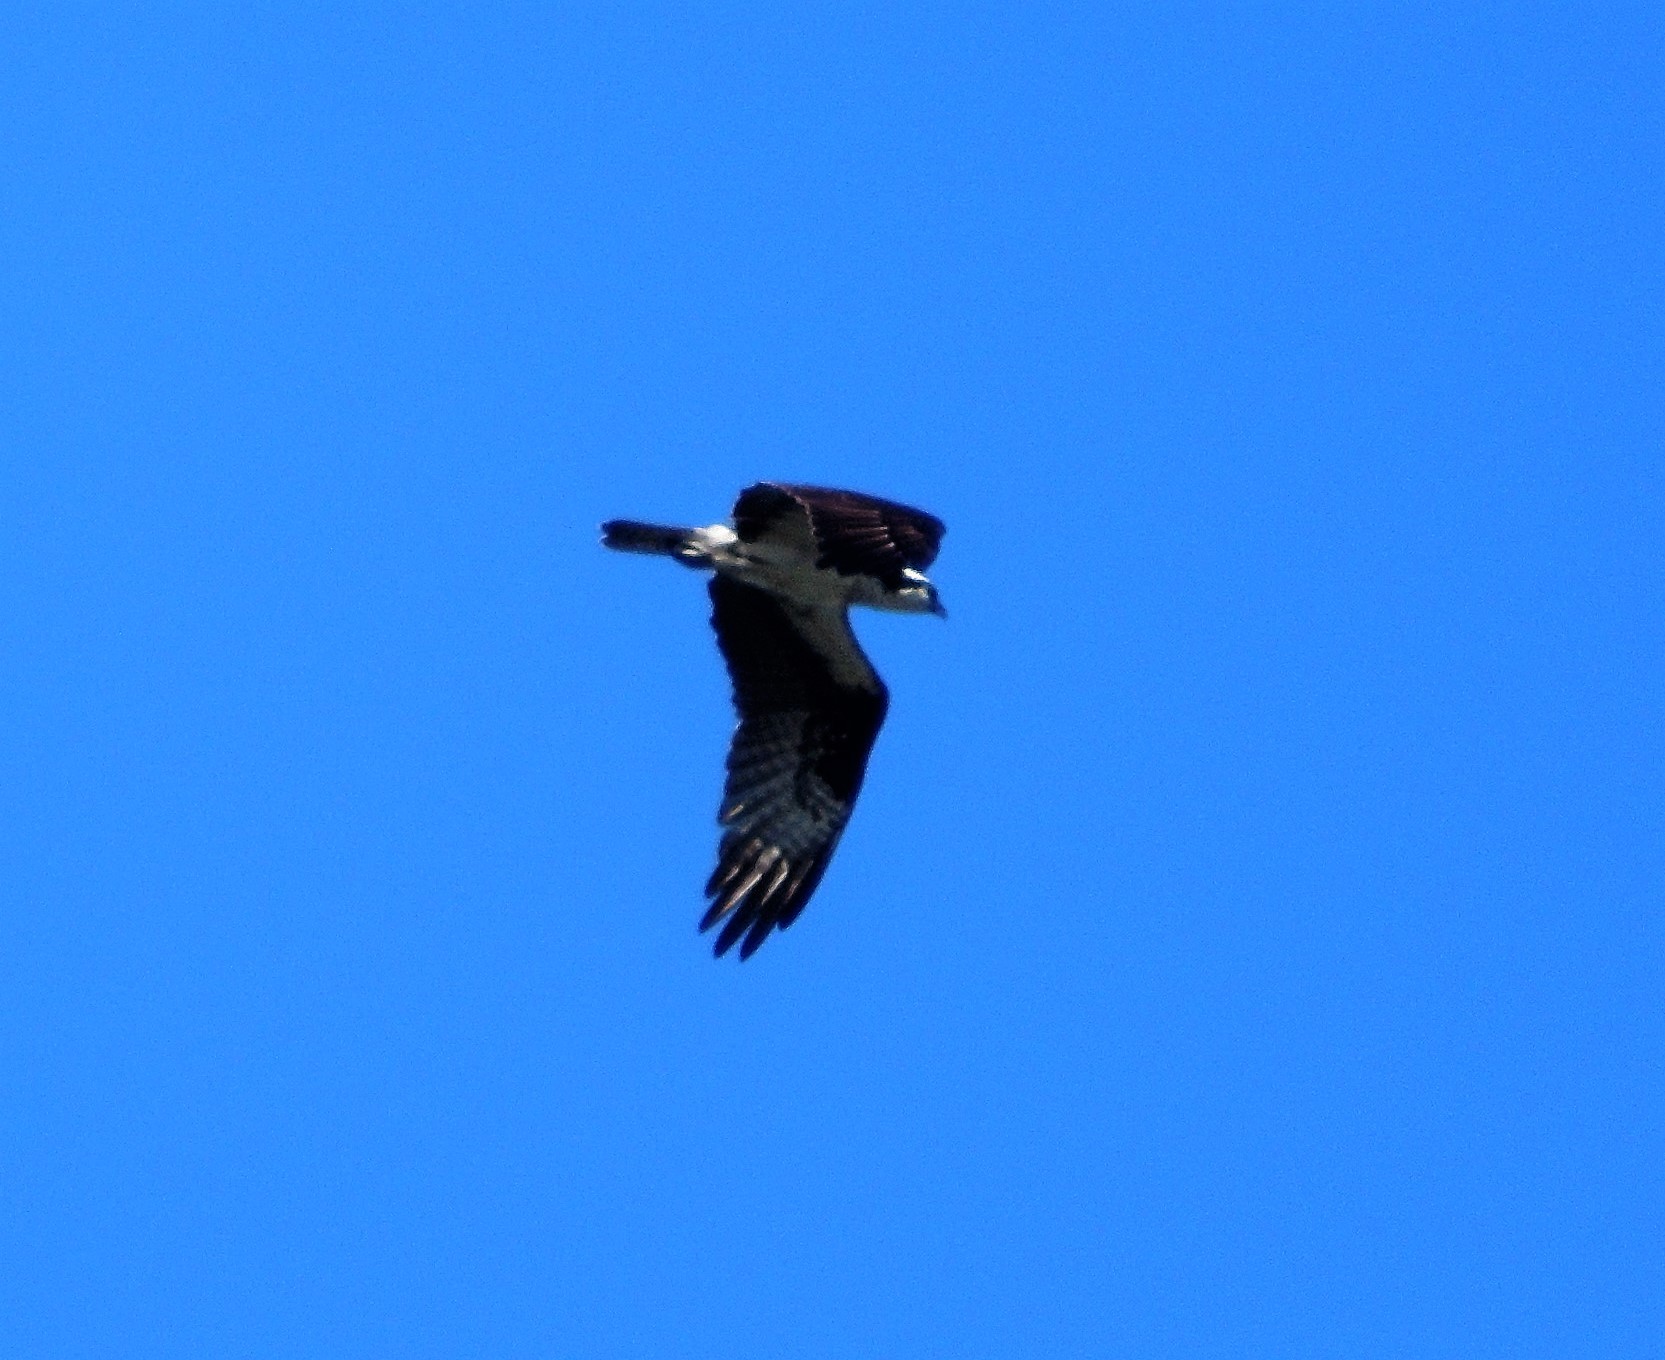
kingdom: Animalia
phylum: Chordata
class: Aves
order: Accipitriformes
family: Pandionidae
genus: Pandion
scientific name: Pandion haliaetus
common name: Osprey
